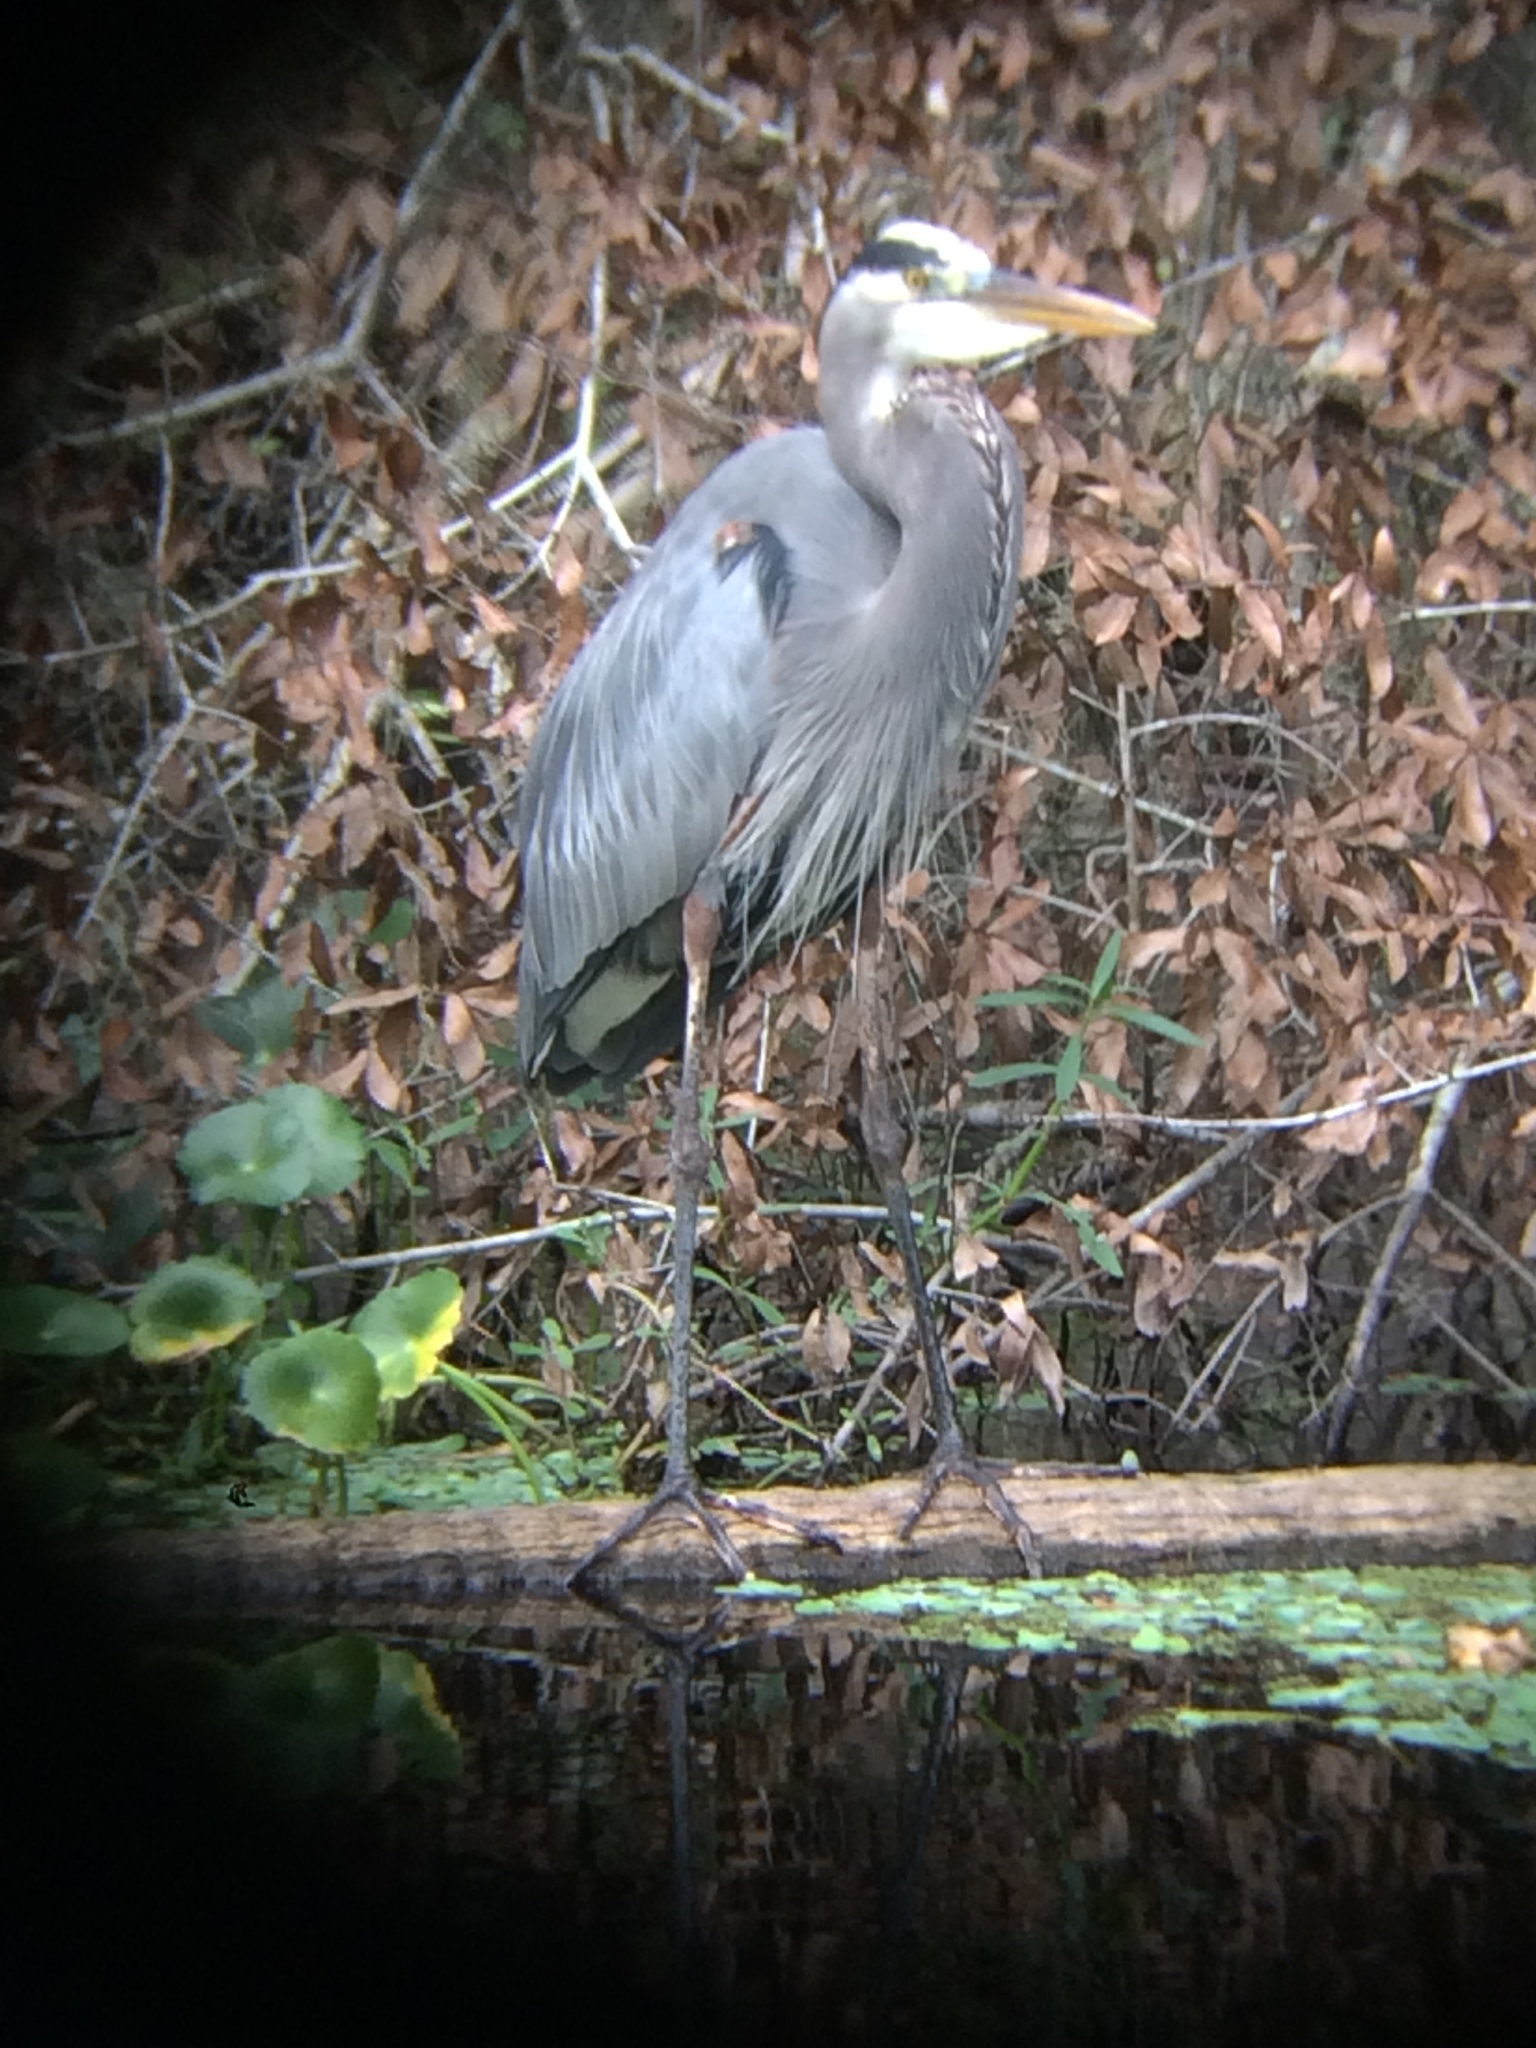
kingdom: Animalia
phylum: Chordata
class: Aves
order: Pelecaniformes
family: Ardeidae
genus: Ardea
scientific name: Ardea herodias
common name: Great blue heron
